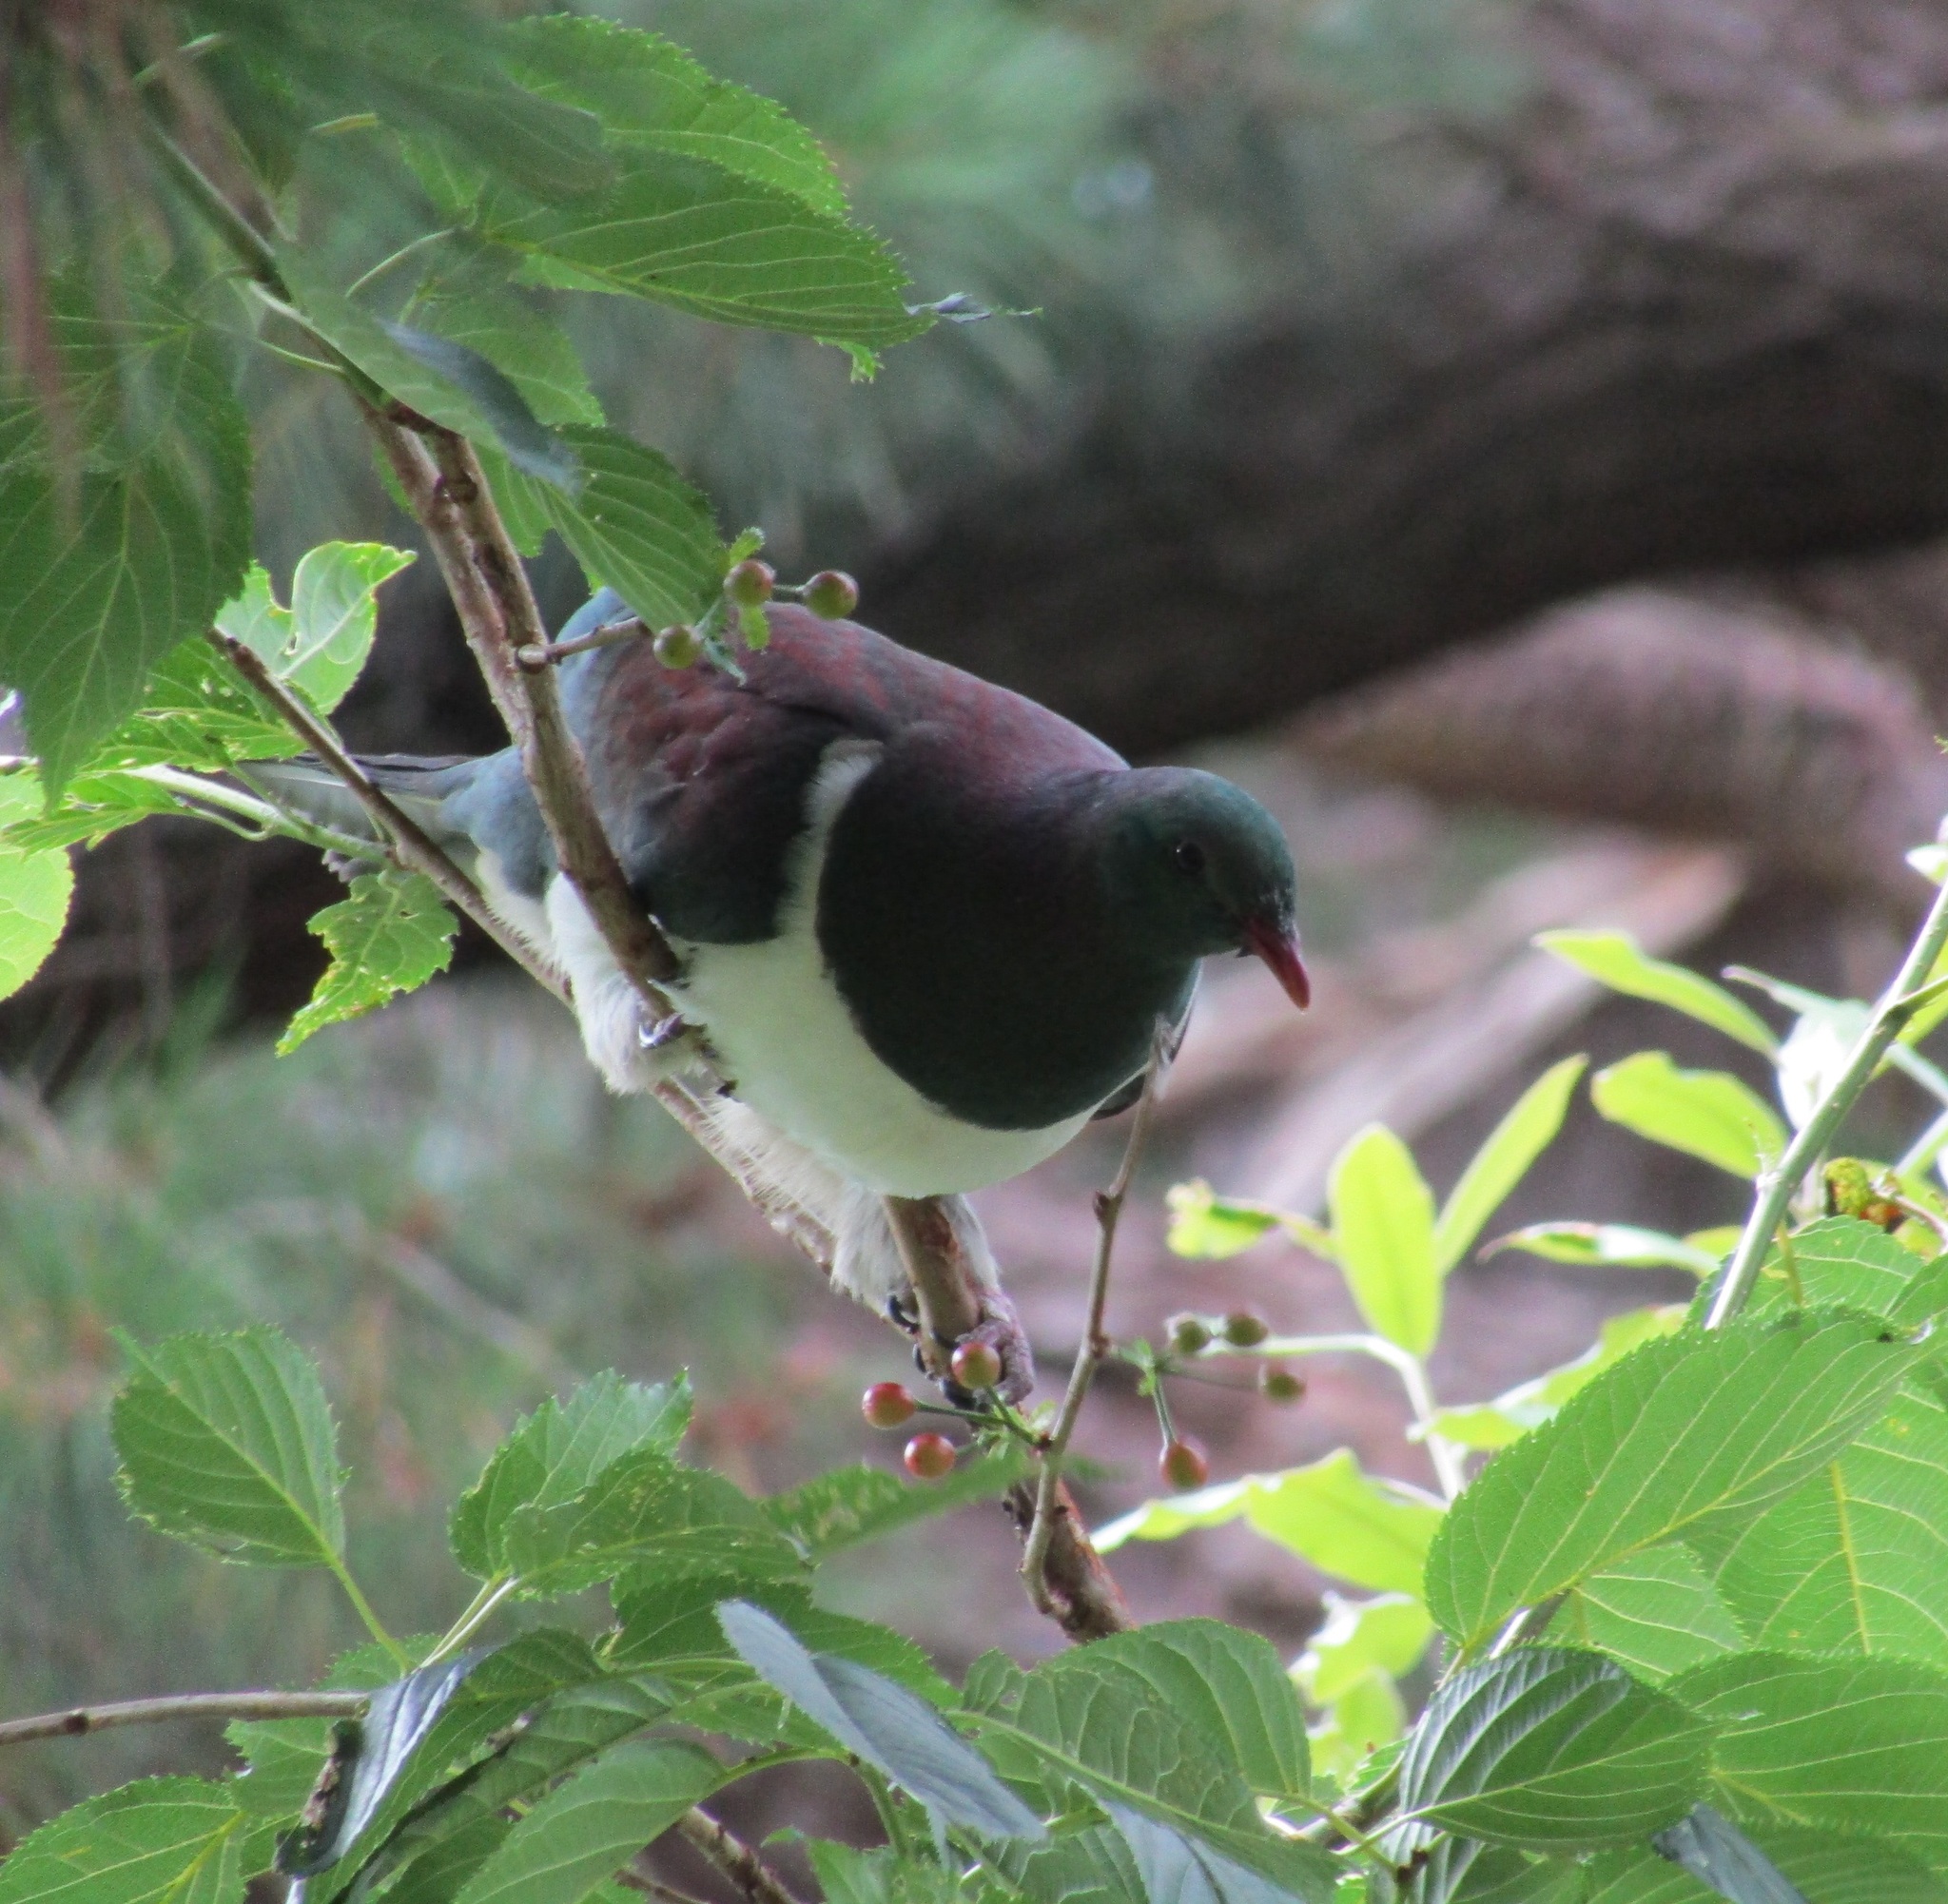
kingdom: Animalia
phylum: Chordata
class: Aves
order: Columbiformes
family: Columbidae
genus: Hemiphaga
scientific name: Hemiphaga novaeseelandiae
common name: New zealand pigeon
